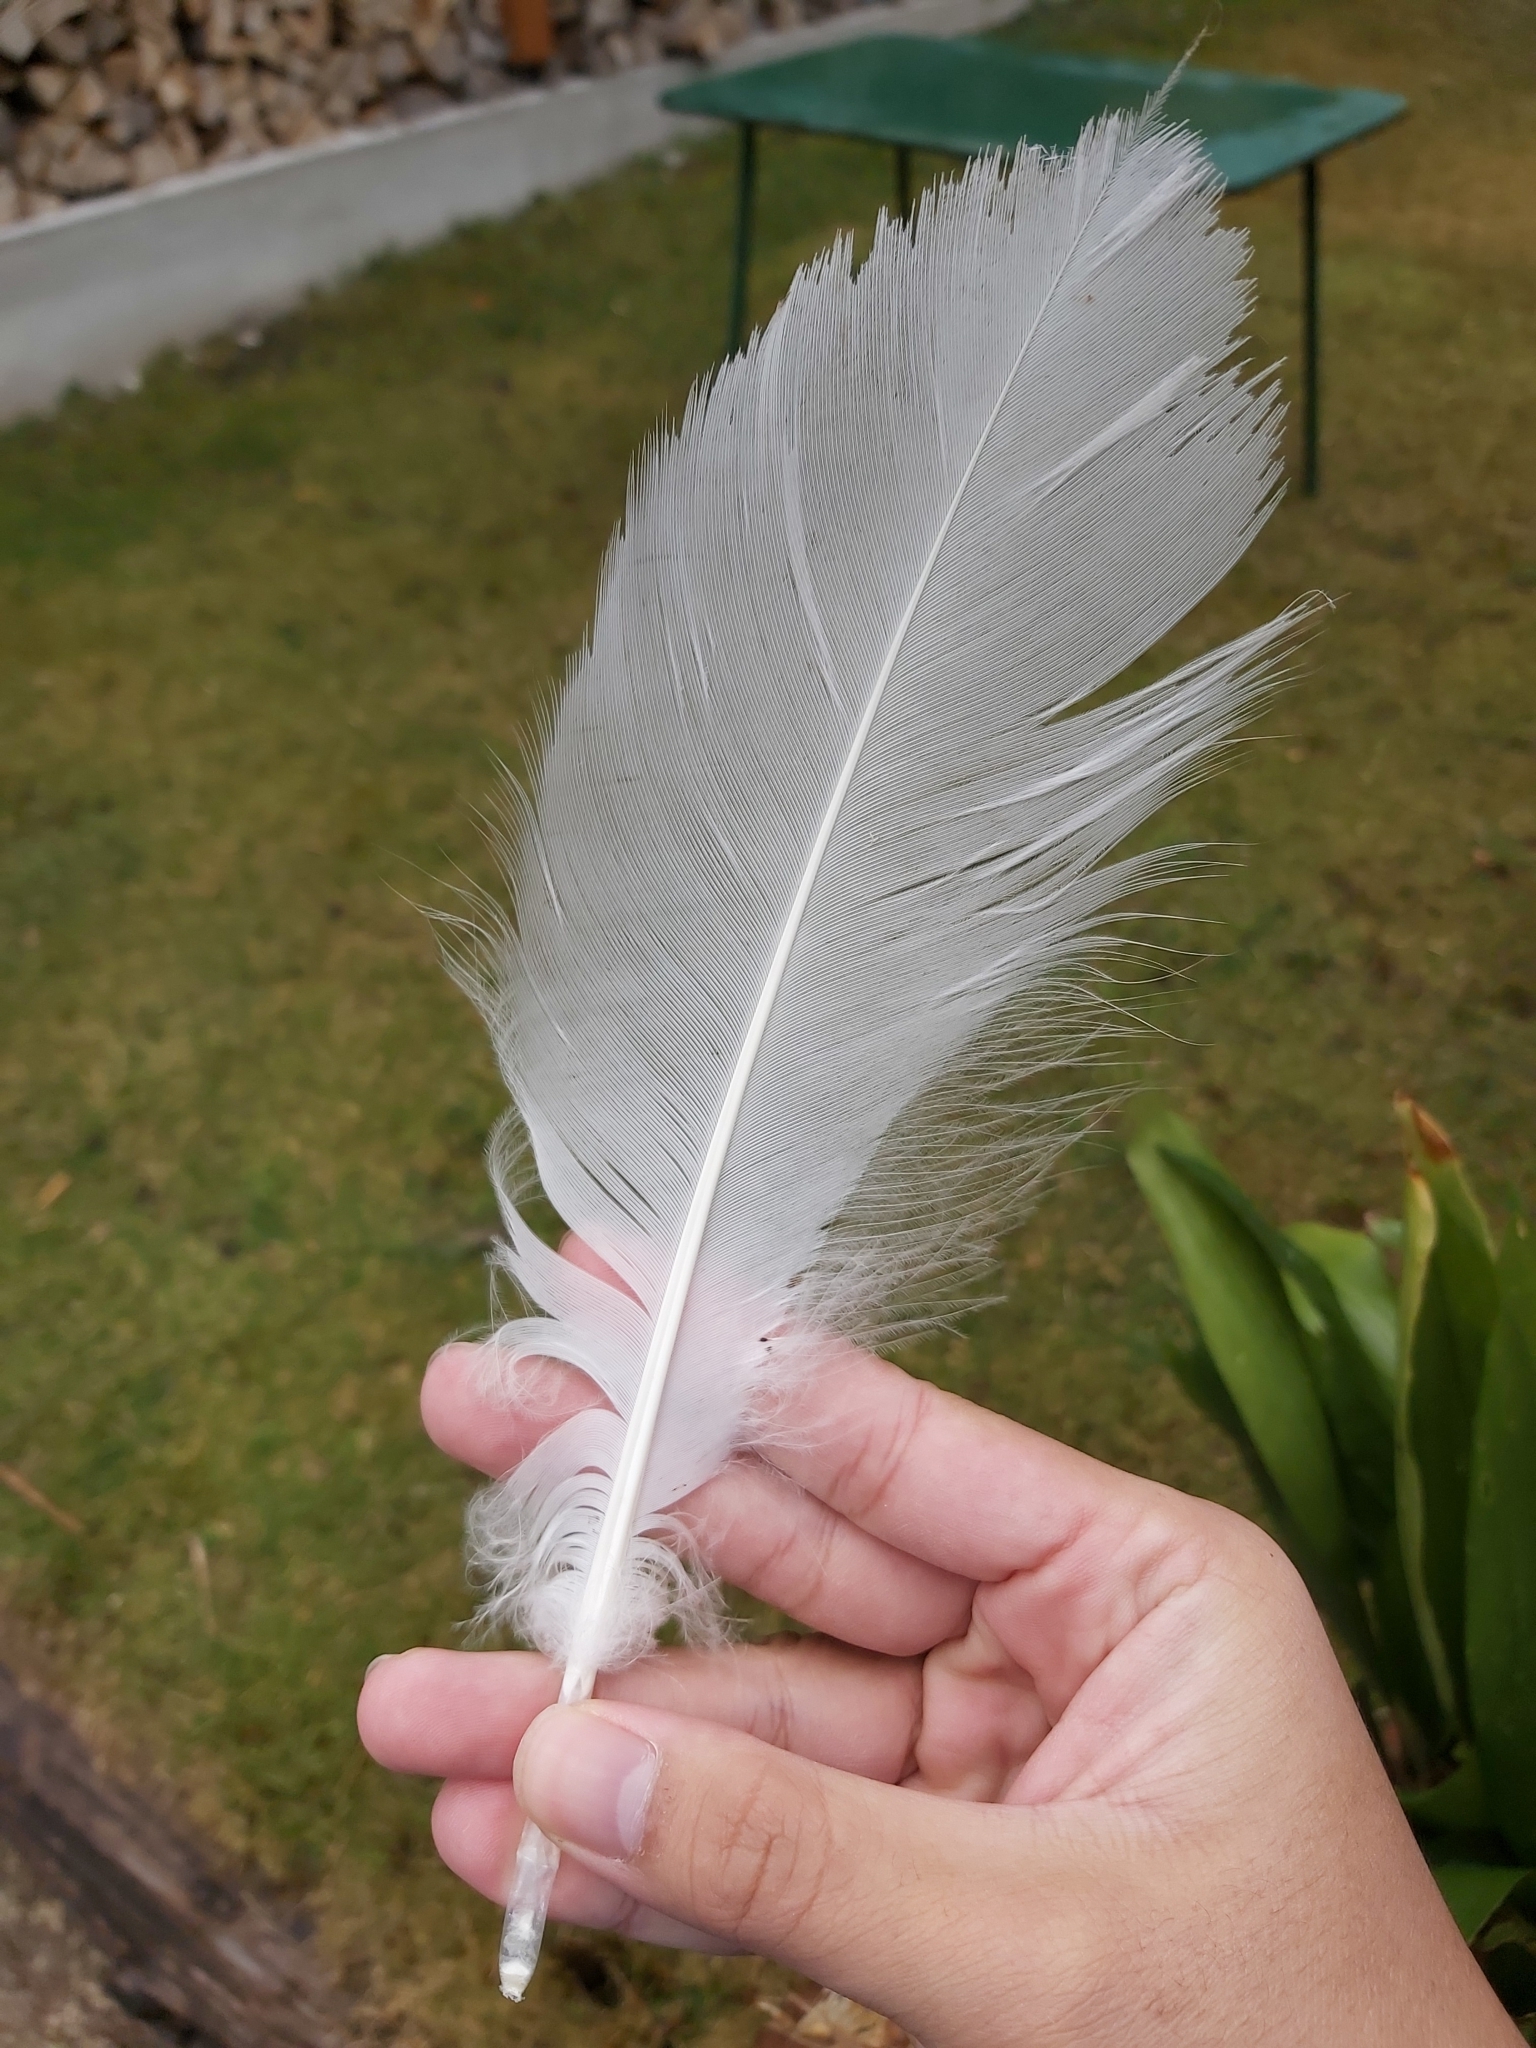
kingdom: Animalia
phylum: Chordata
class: Aves
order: Anseriformes
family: Anatidae
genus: Cygnus
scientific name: Cygnus olor
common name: Mute swan
